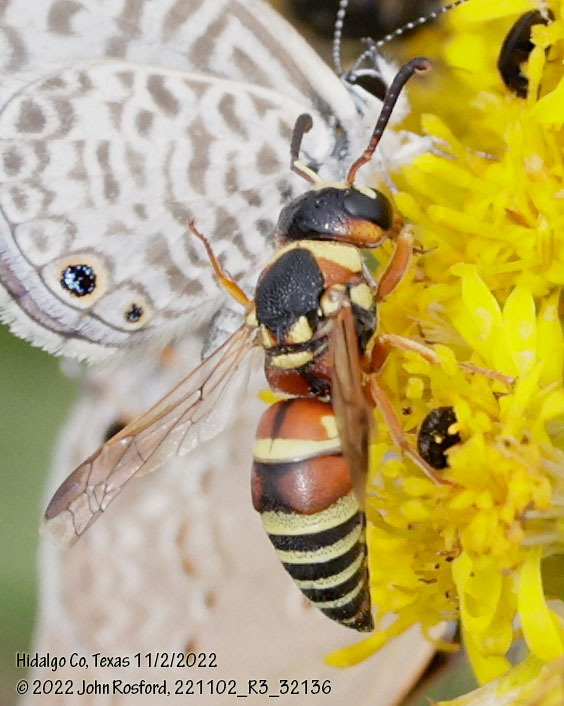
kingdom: Animalia
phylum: Arthropoda
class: Insecta
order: Hymenoptera
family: Eumenidae
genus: Euodynerus
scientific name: Euodynerus annulatus
